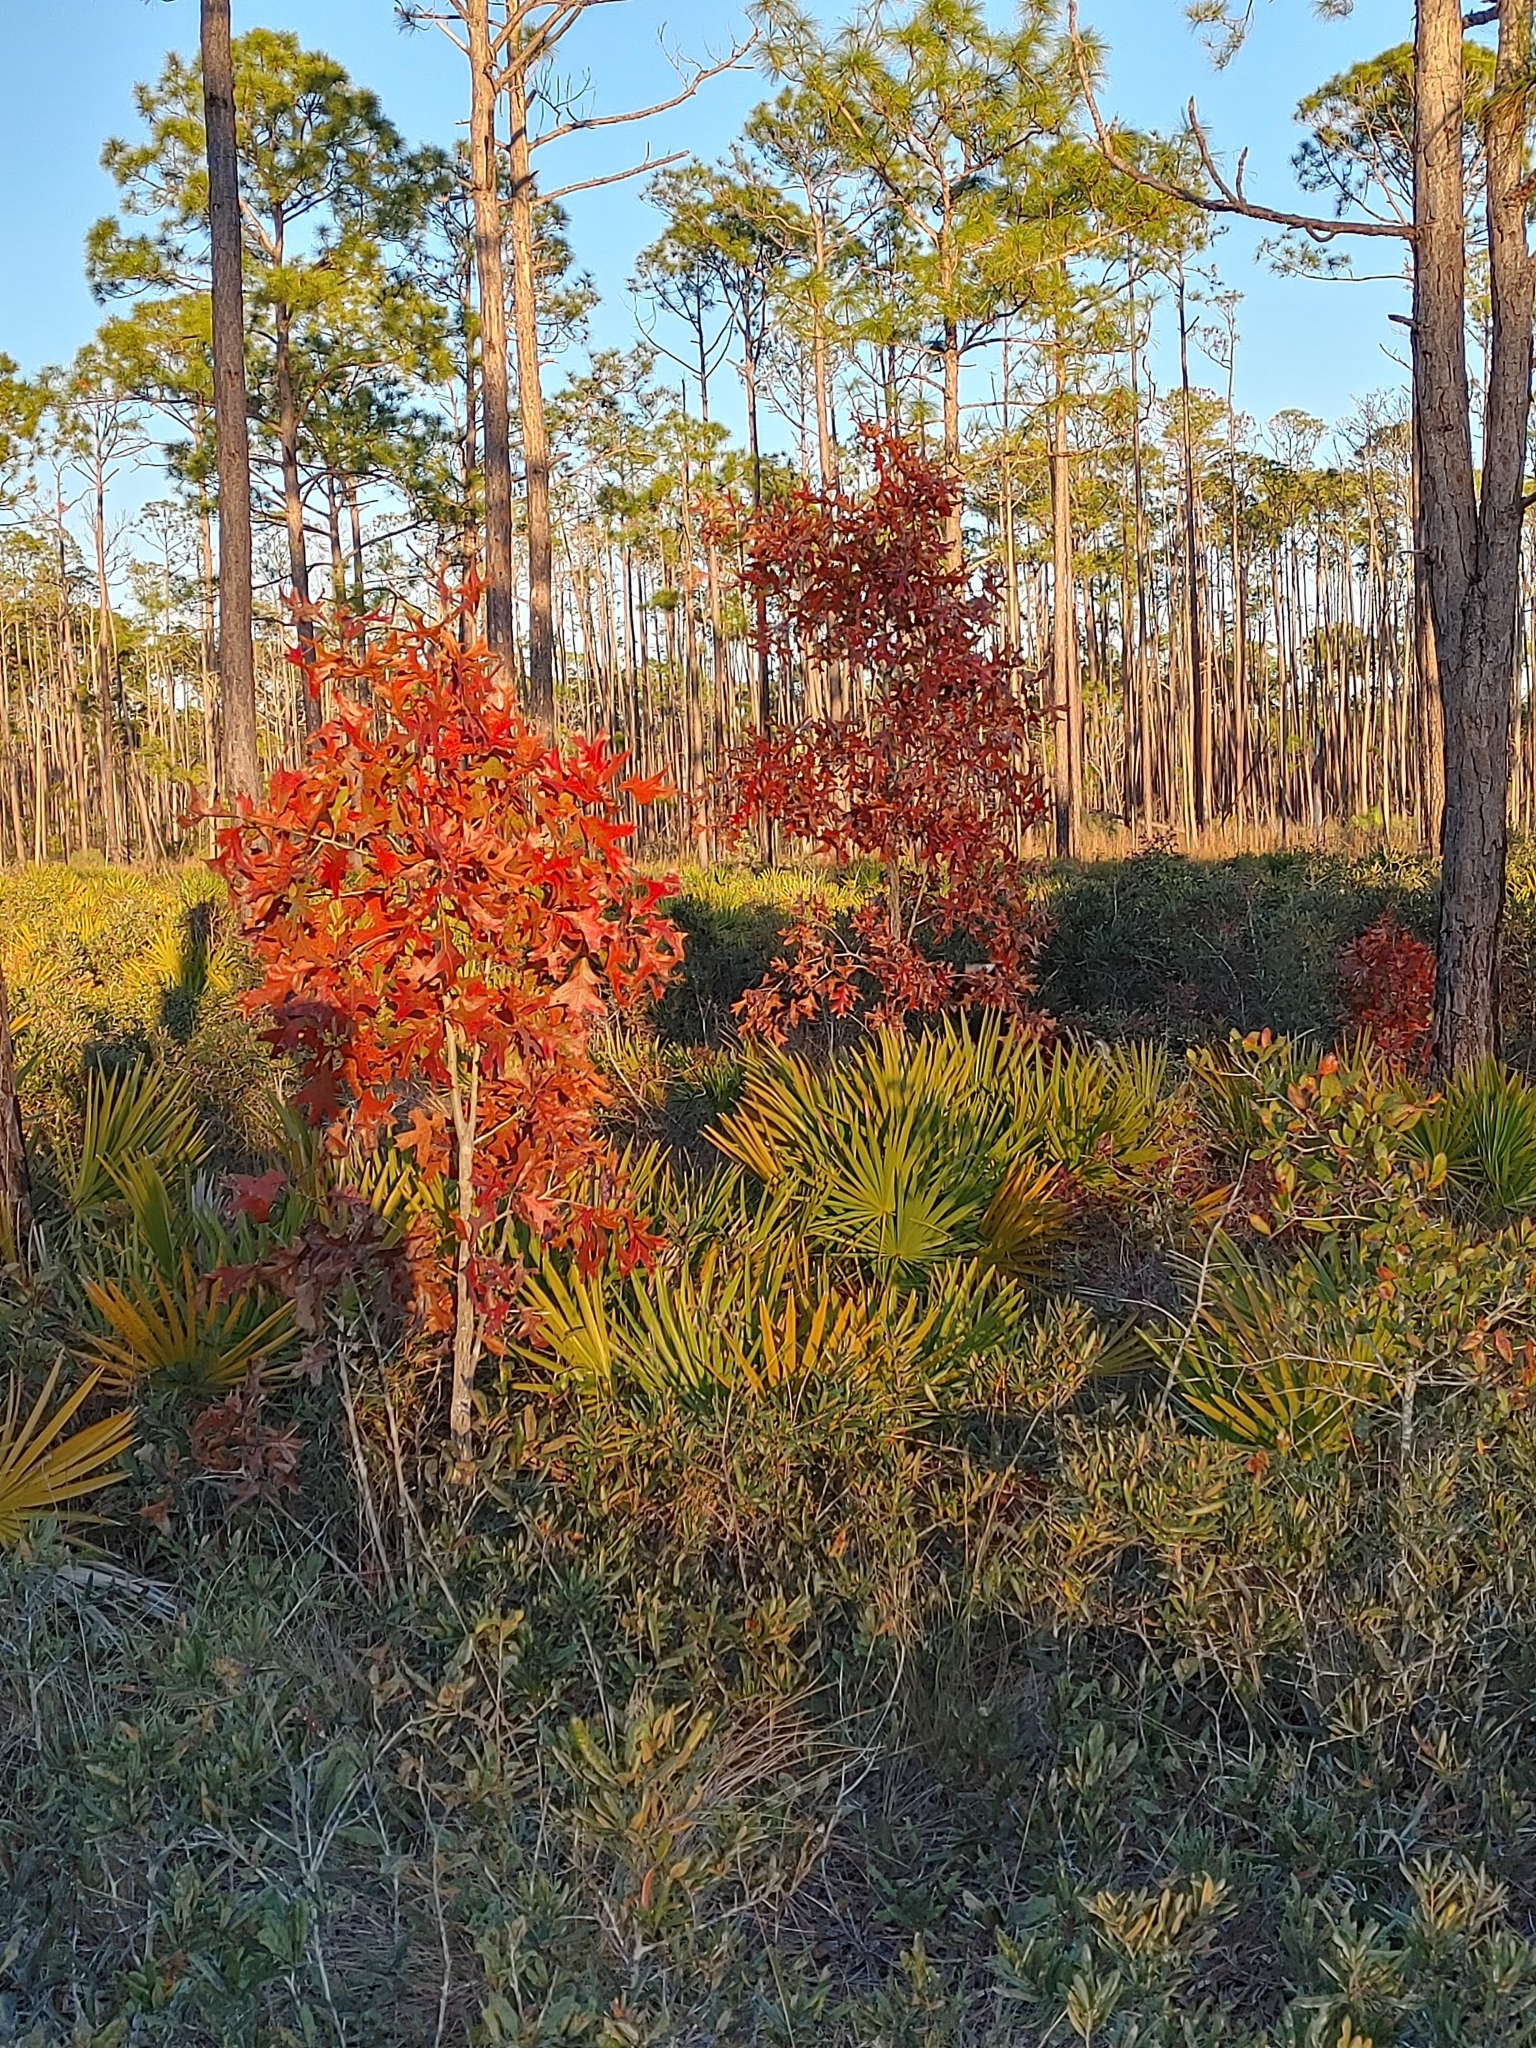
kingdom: Plantae
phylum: Tracheophyta
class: Magnoliopsida
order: Fagales
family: Fagaceae
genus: Quercus
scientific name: Quercus laevis
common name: Turkey oak
